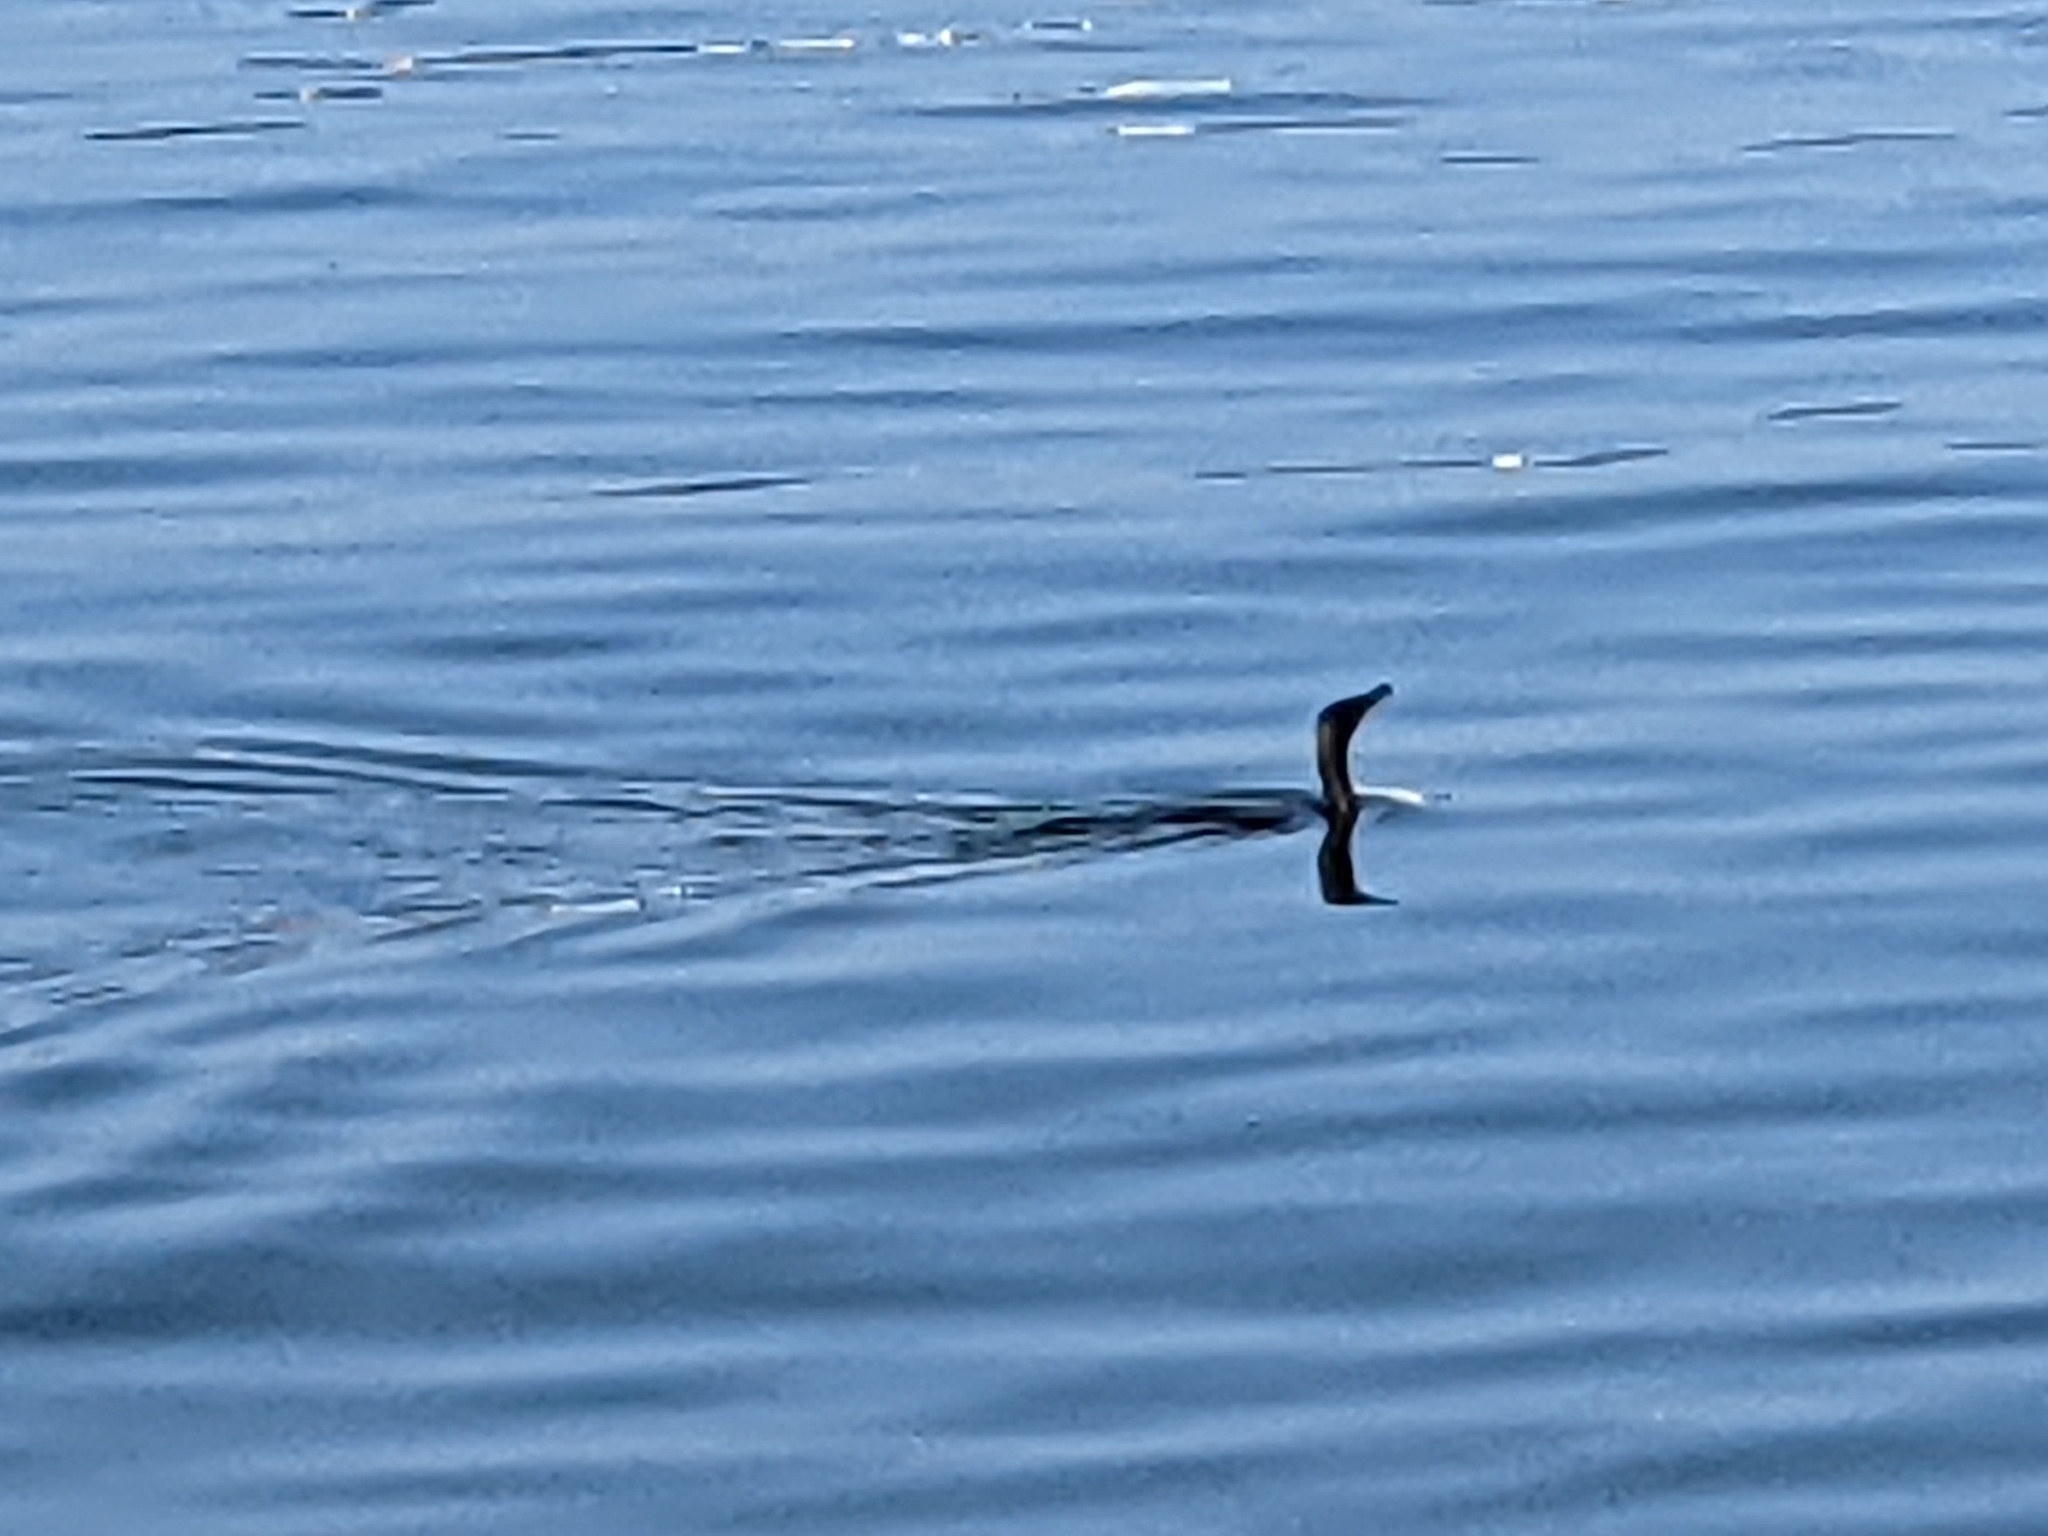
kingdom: Animalia
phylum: Chordata
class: Aves
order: Suliformes
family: Phalacrocoracidae
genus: Phalacrocorax
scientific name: Phalacrocorax pelagicus
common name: Pelagic cormorant
